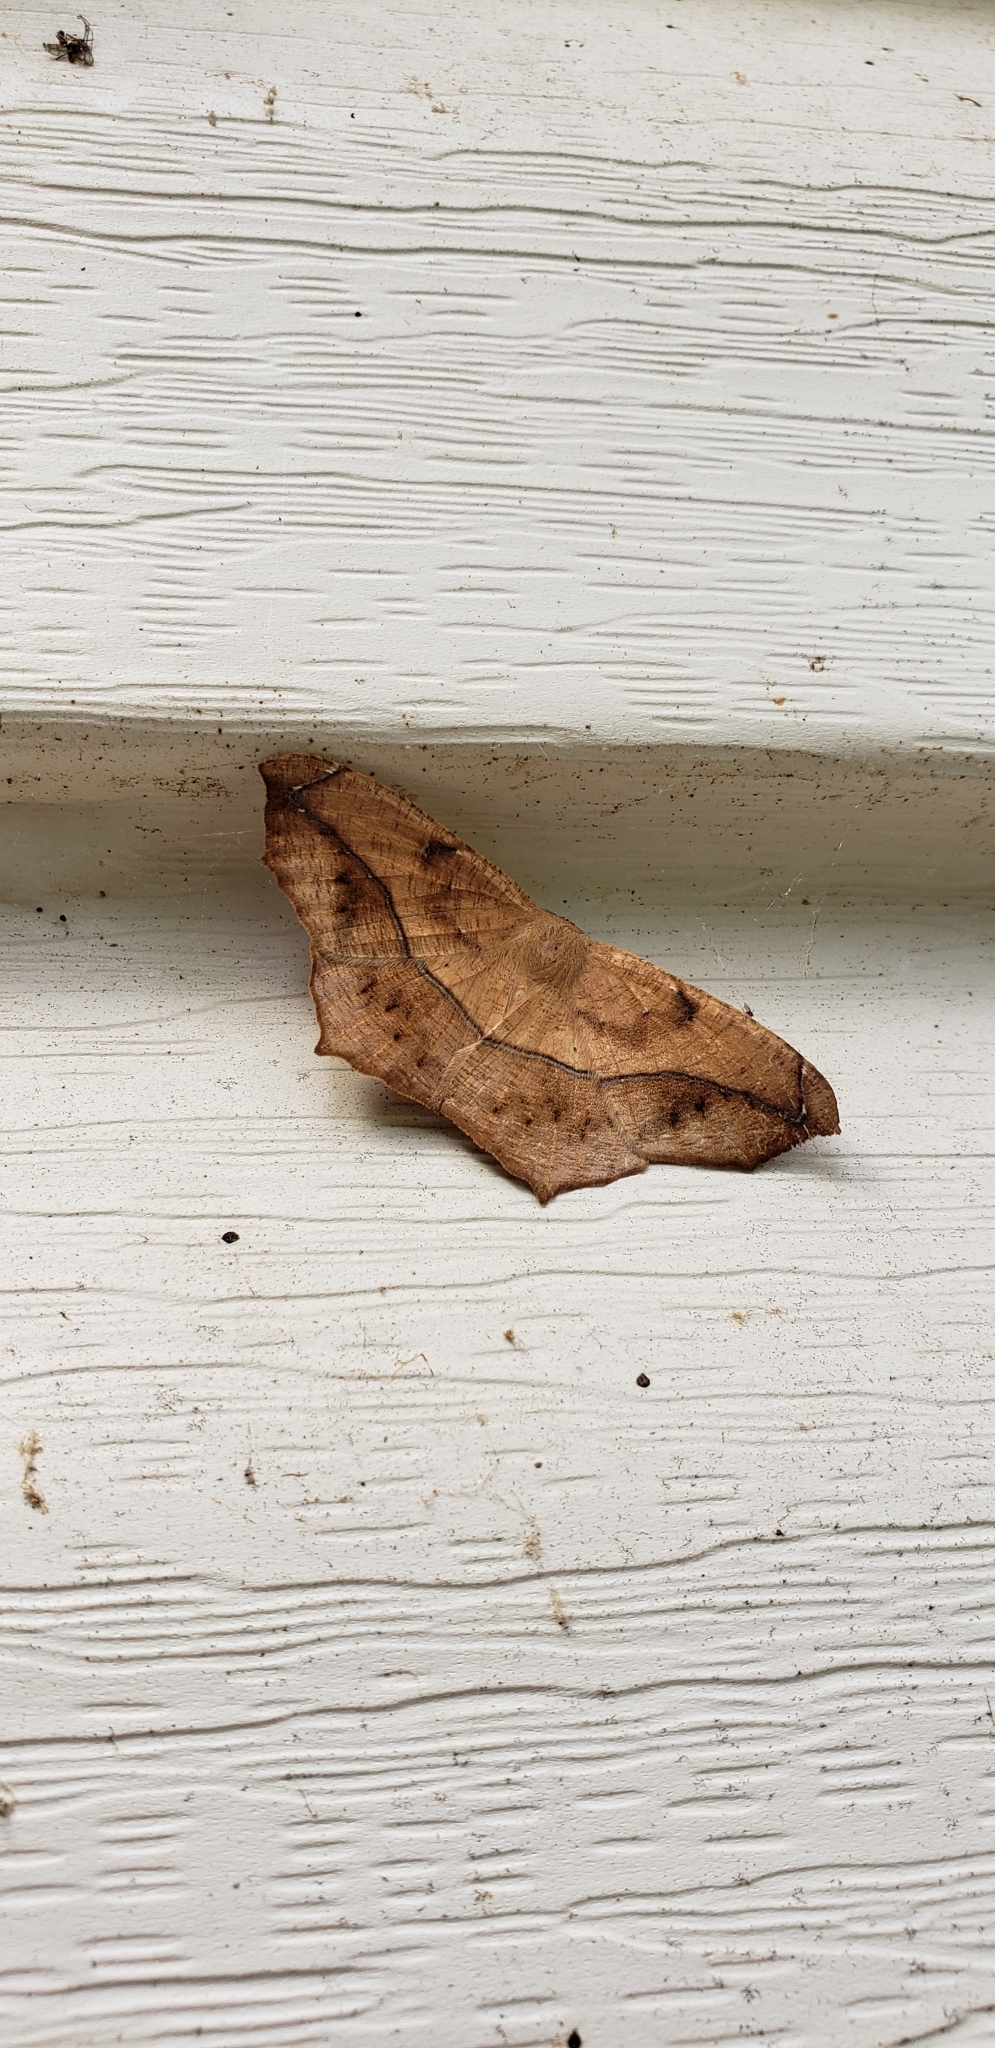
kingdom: Animalia
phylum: Arthropoda
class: Insecta
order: Lepidoptera
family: Geometridae
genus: Prochoerodes
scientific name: Prochoerodes lineola
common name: Large maple spanworm
